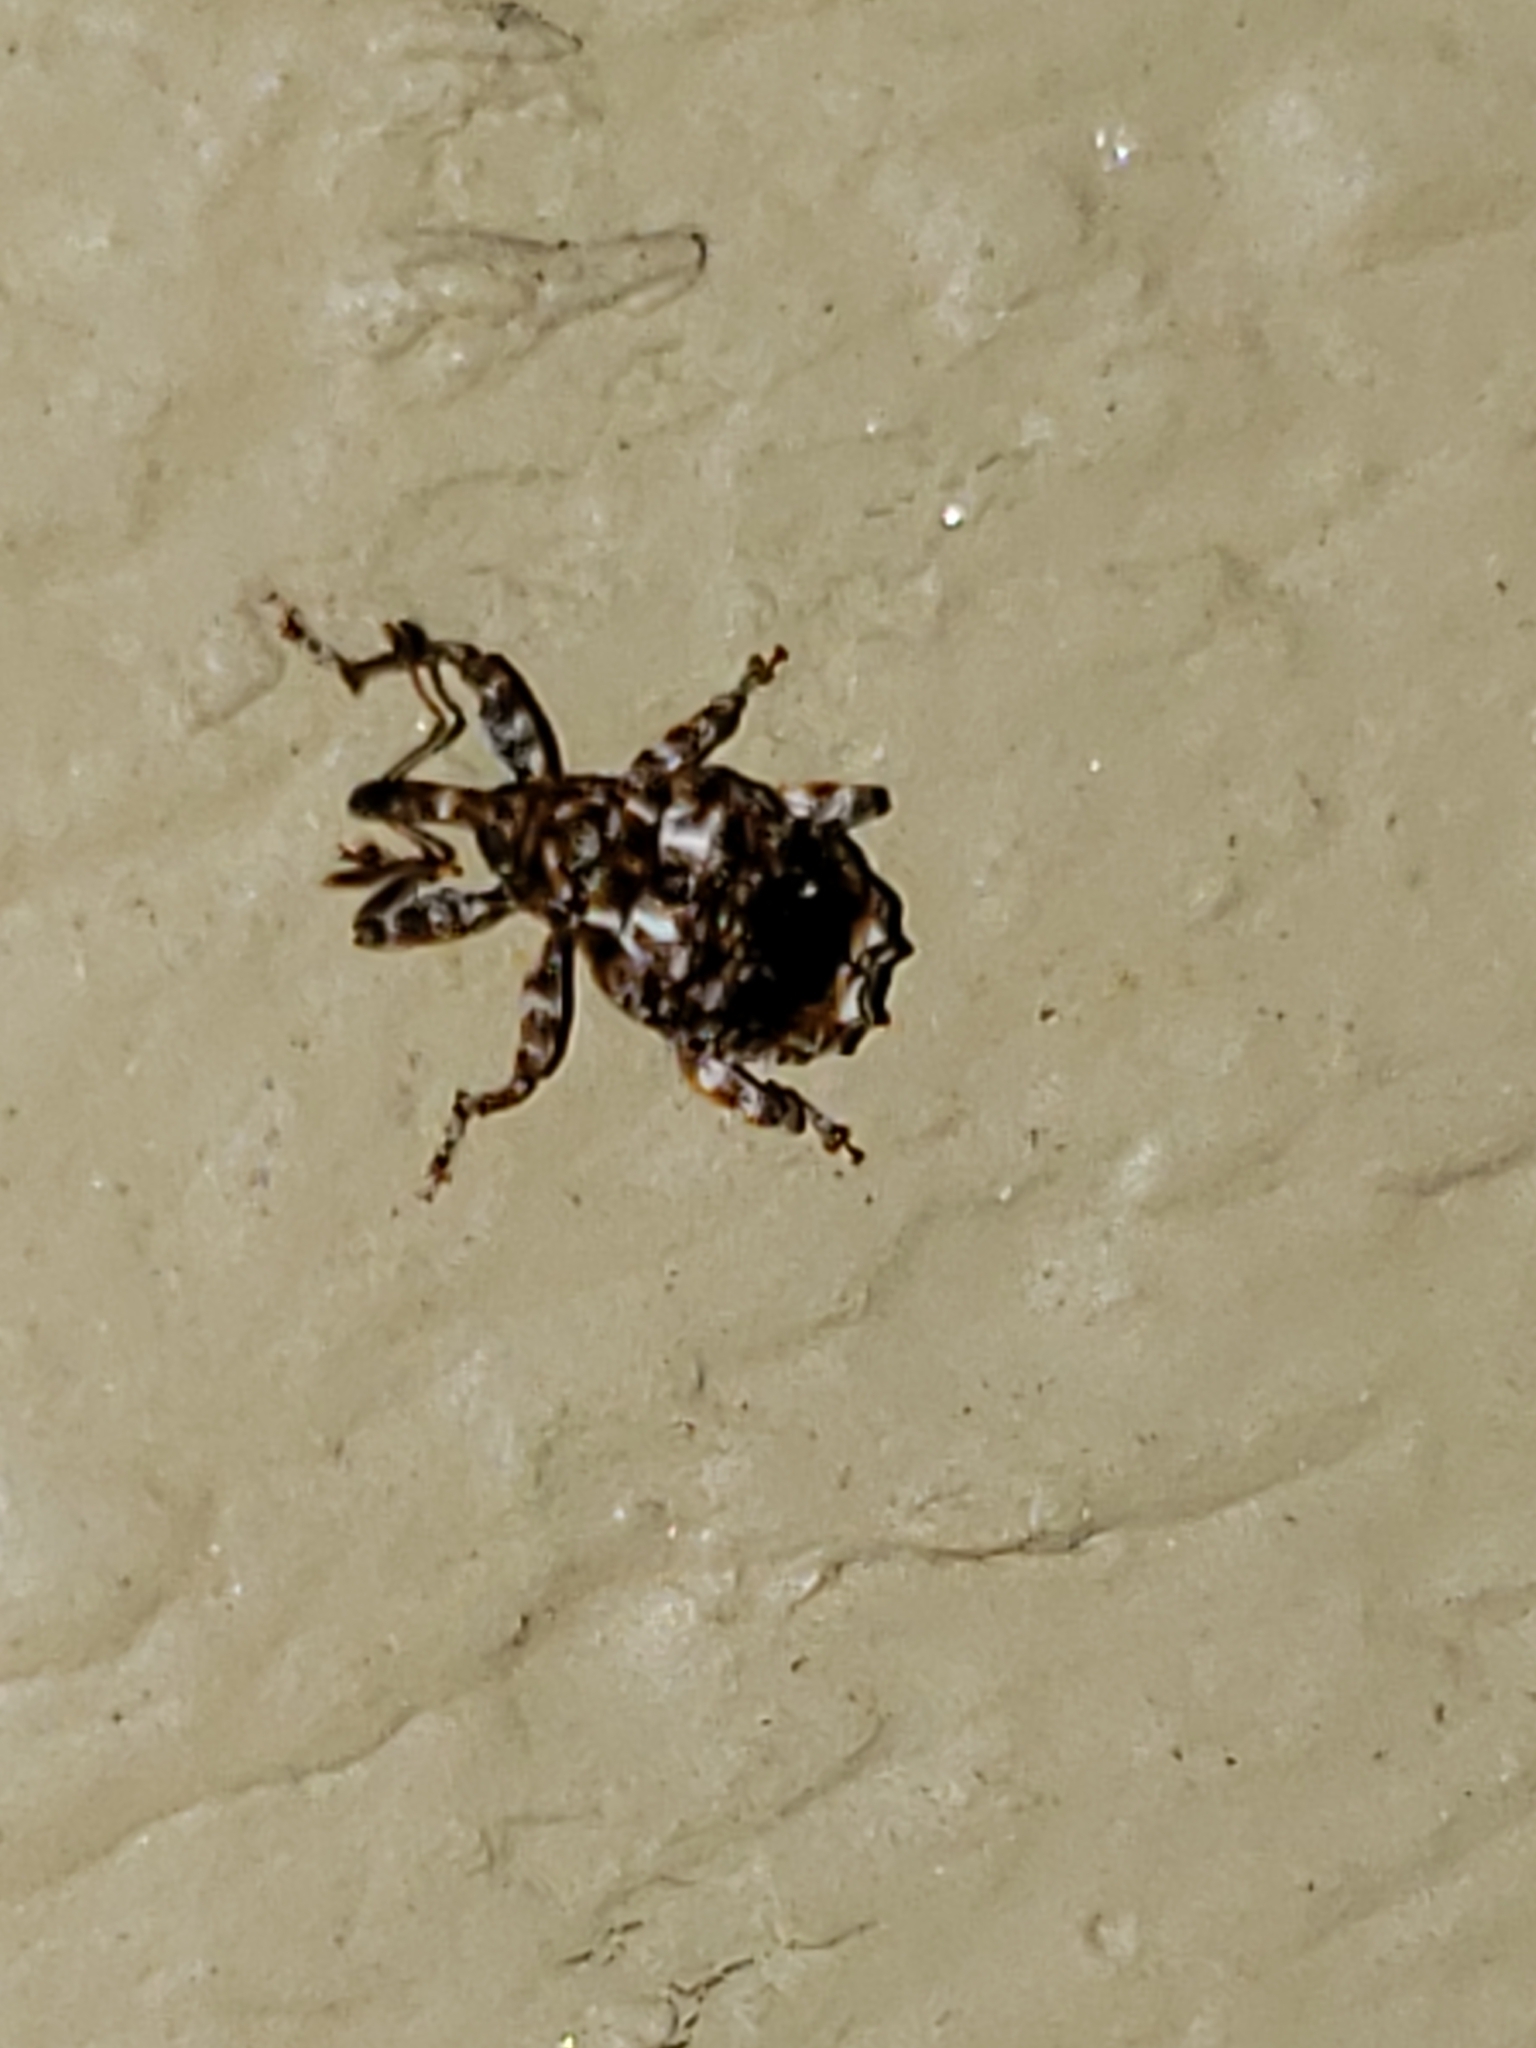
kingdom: Animalia
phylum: Arthropoda
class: Insecta
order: Coleoptera
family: Curculionidae
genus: Conotrachelus
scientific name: Conotrachelus nenuphar
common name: Plum curculio
